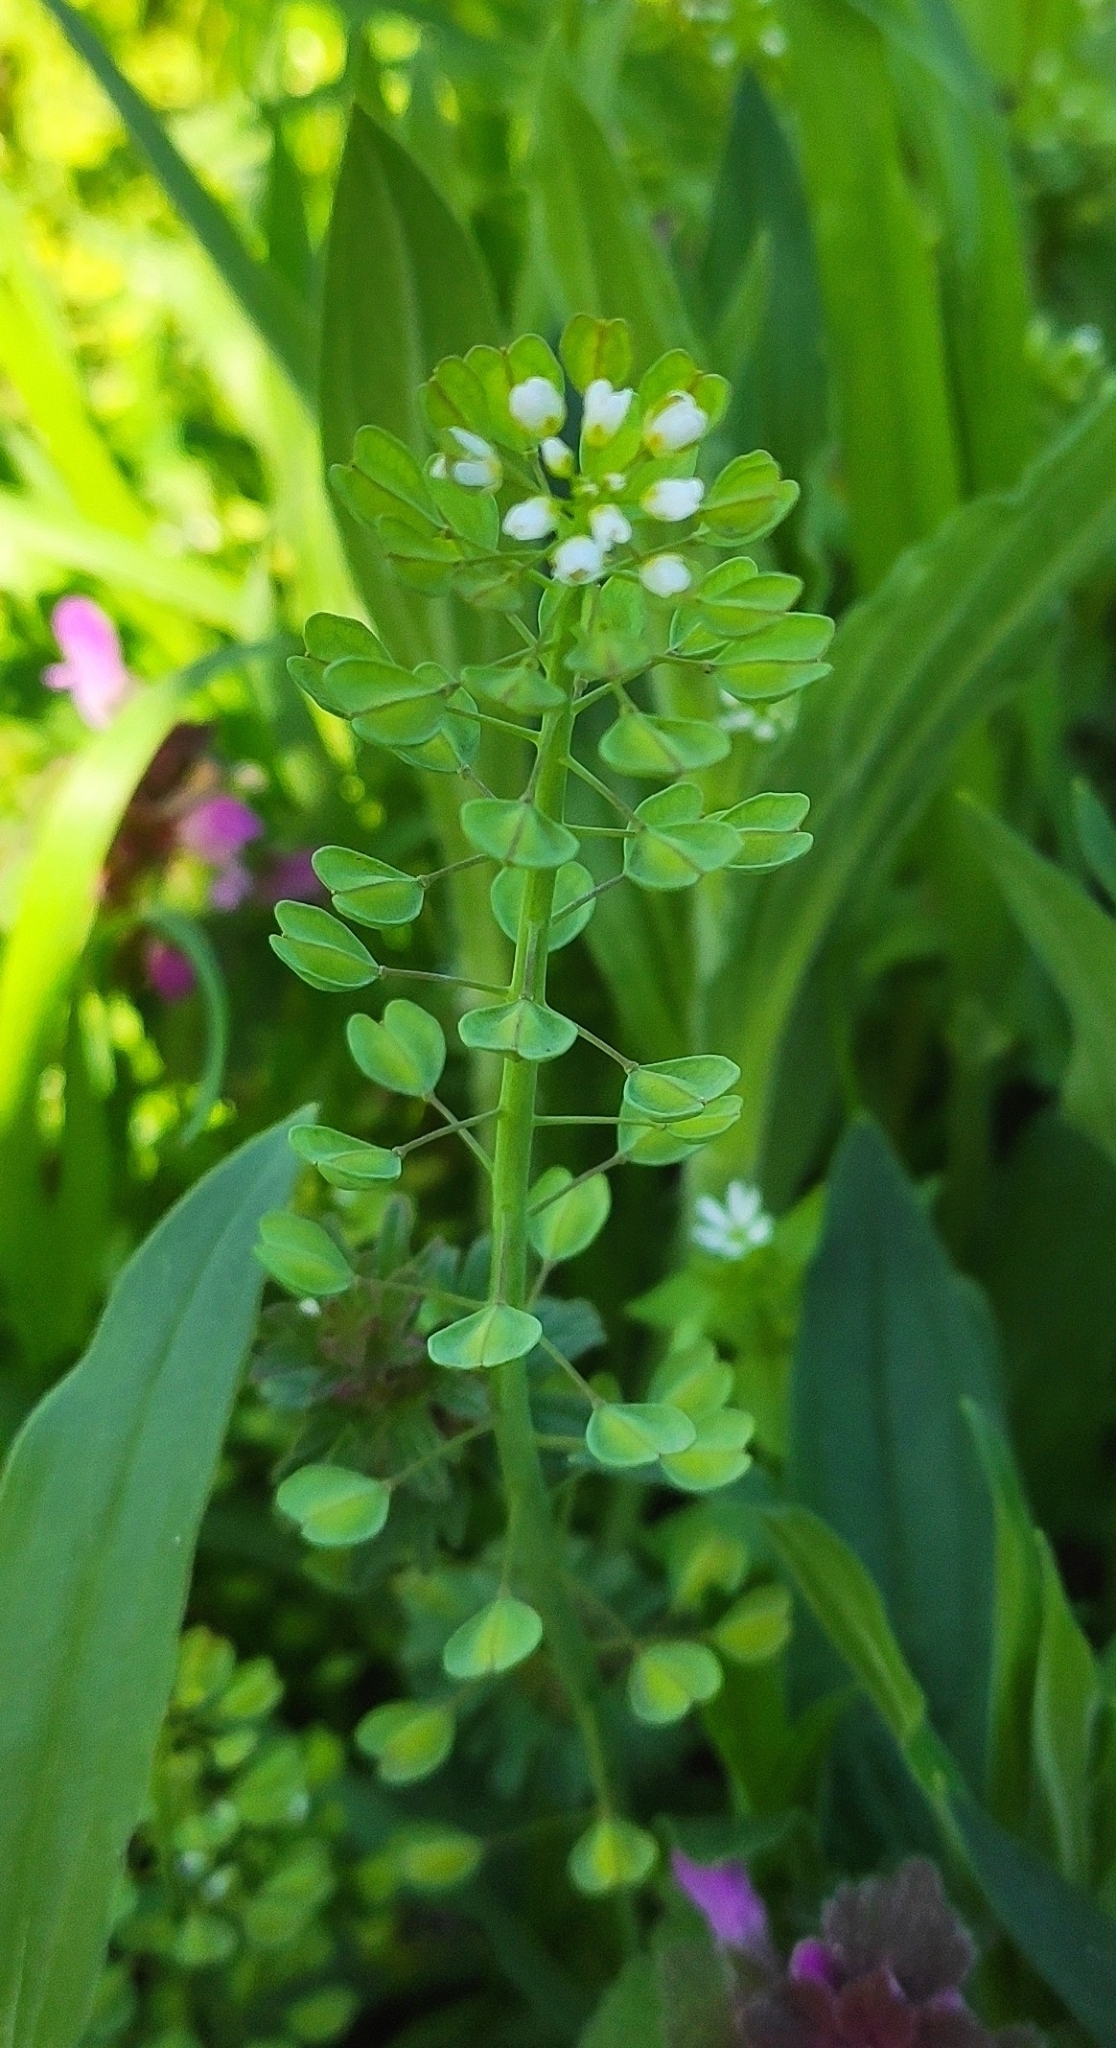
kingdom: Plantae
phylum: Tracheophyta
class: Magnoliopsida
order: Brassicales
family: Brassicaceae
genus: Noccaea
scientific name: Noccaea perfoliata
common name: Perfoliate pennycress
